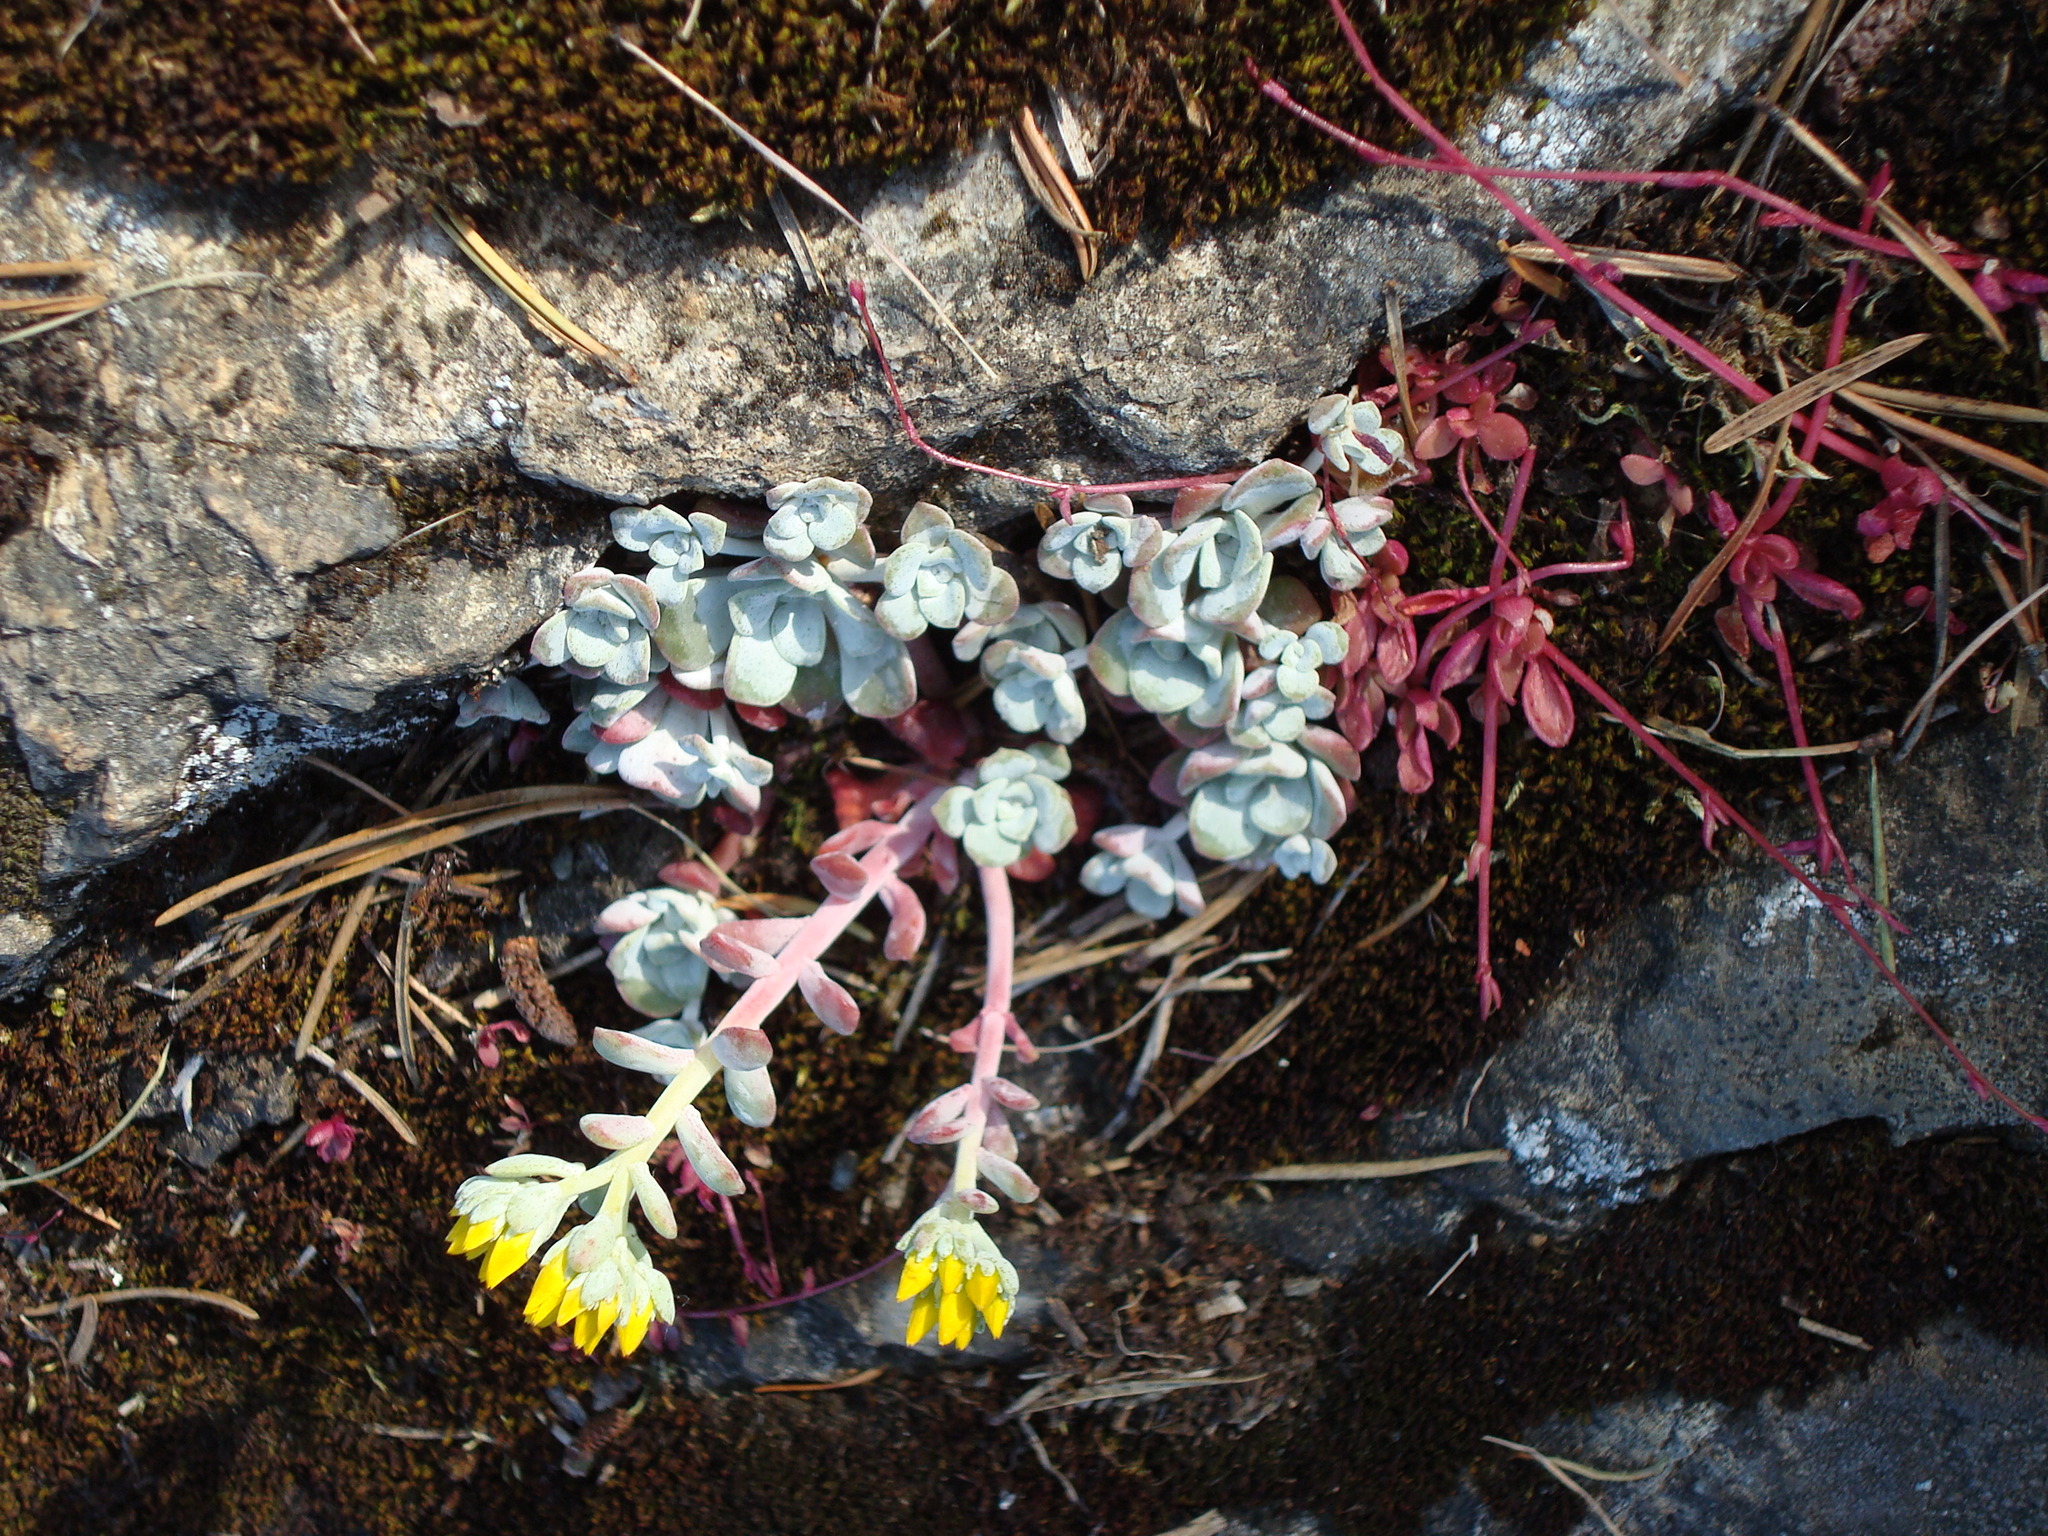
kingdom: Plantae
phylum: Tracheophyta
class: Magnoliopsida
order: Saxifragales
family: Crassulaceae
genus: Sedum
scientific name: Sedum spathulifolium
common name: Colorado stonecrop
